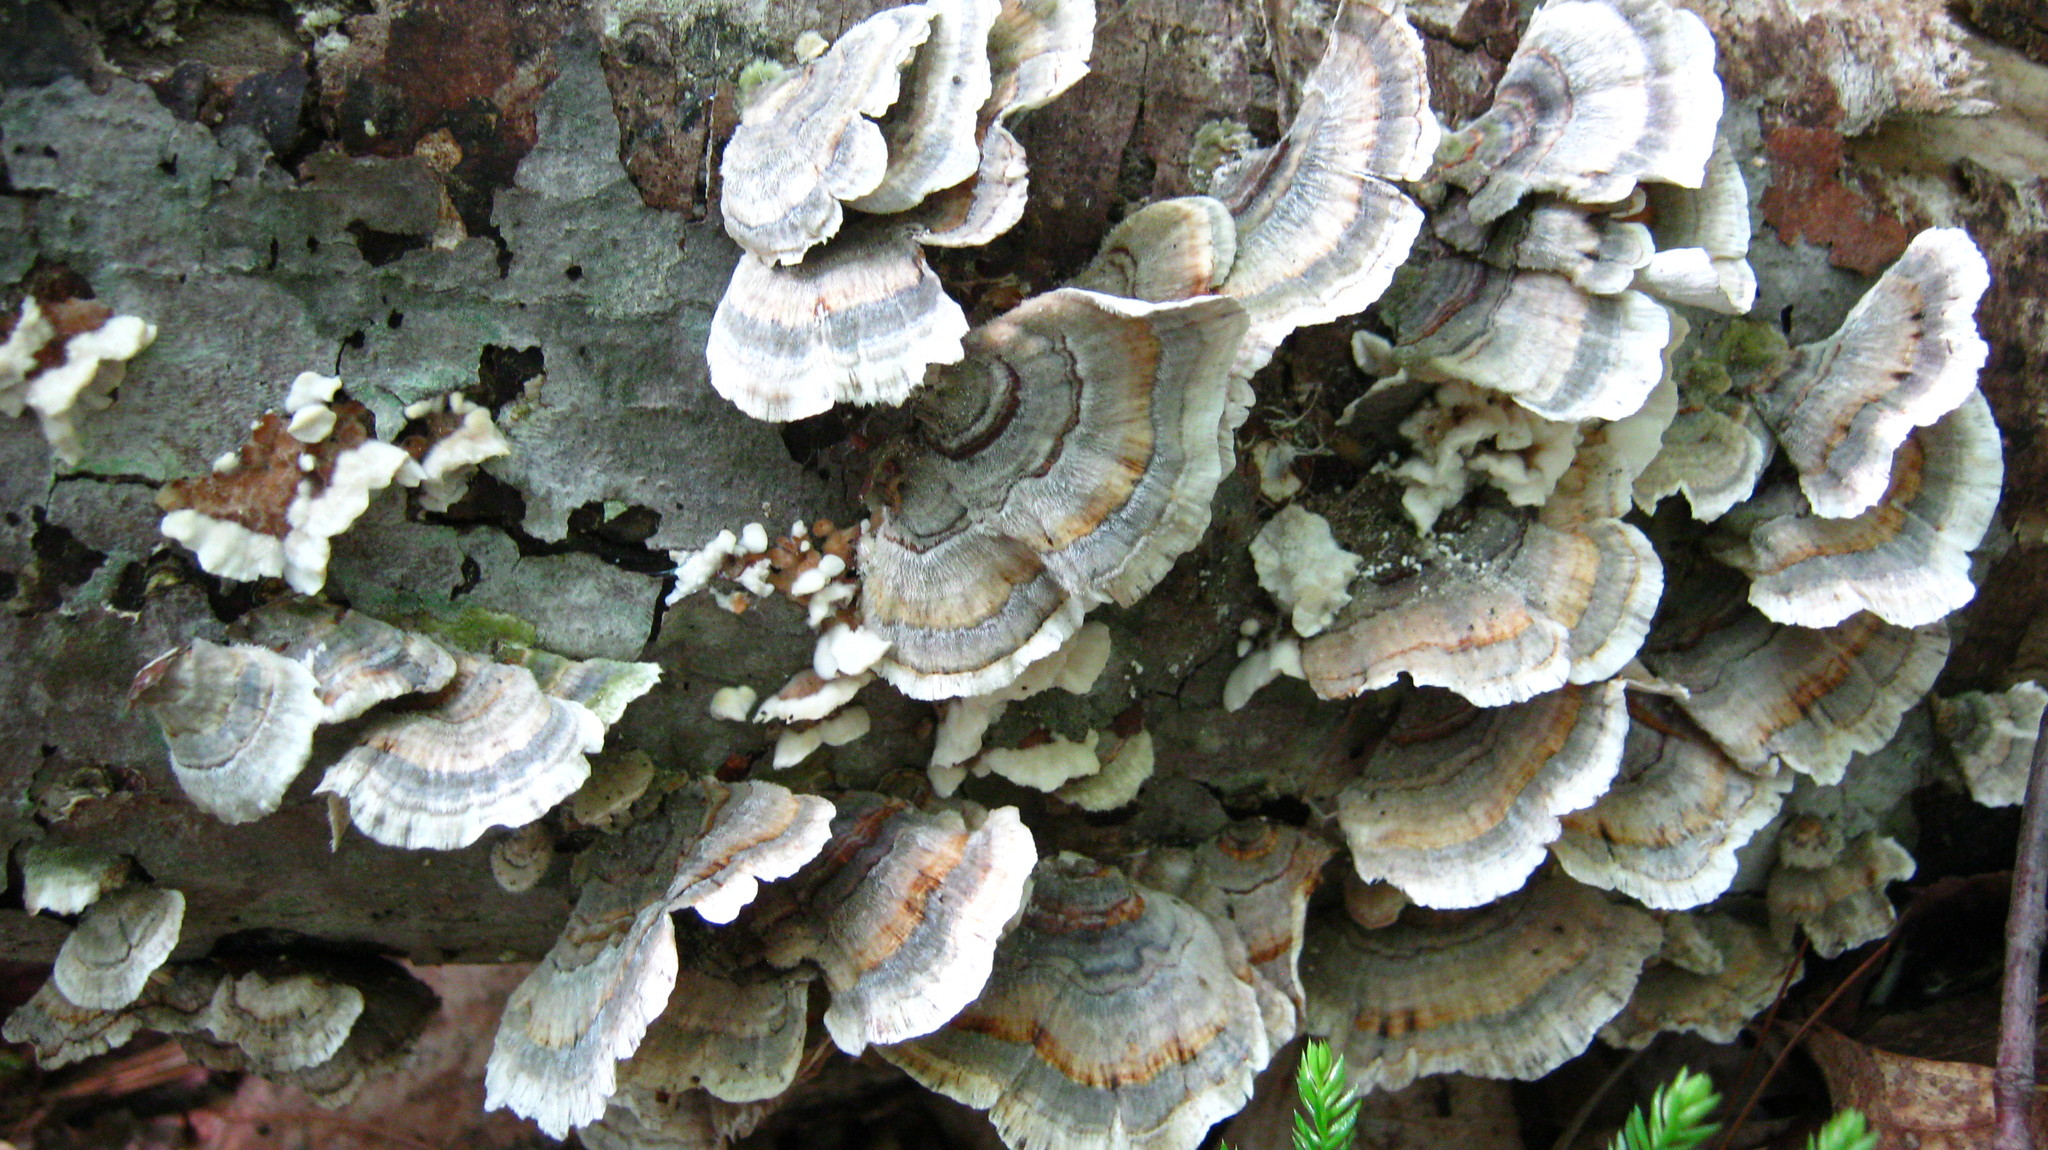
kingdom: Fungi
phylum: Basidiomycota
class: Agaricomycetes
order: Polyporales
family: Polyporaceae
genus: Trametes
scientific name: Trametes versicolor
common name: Turkeytail
